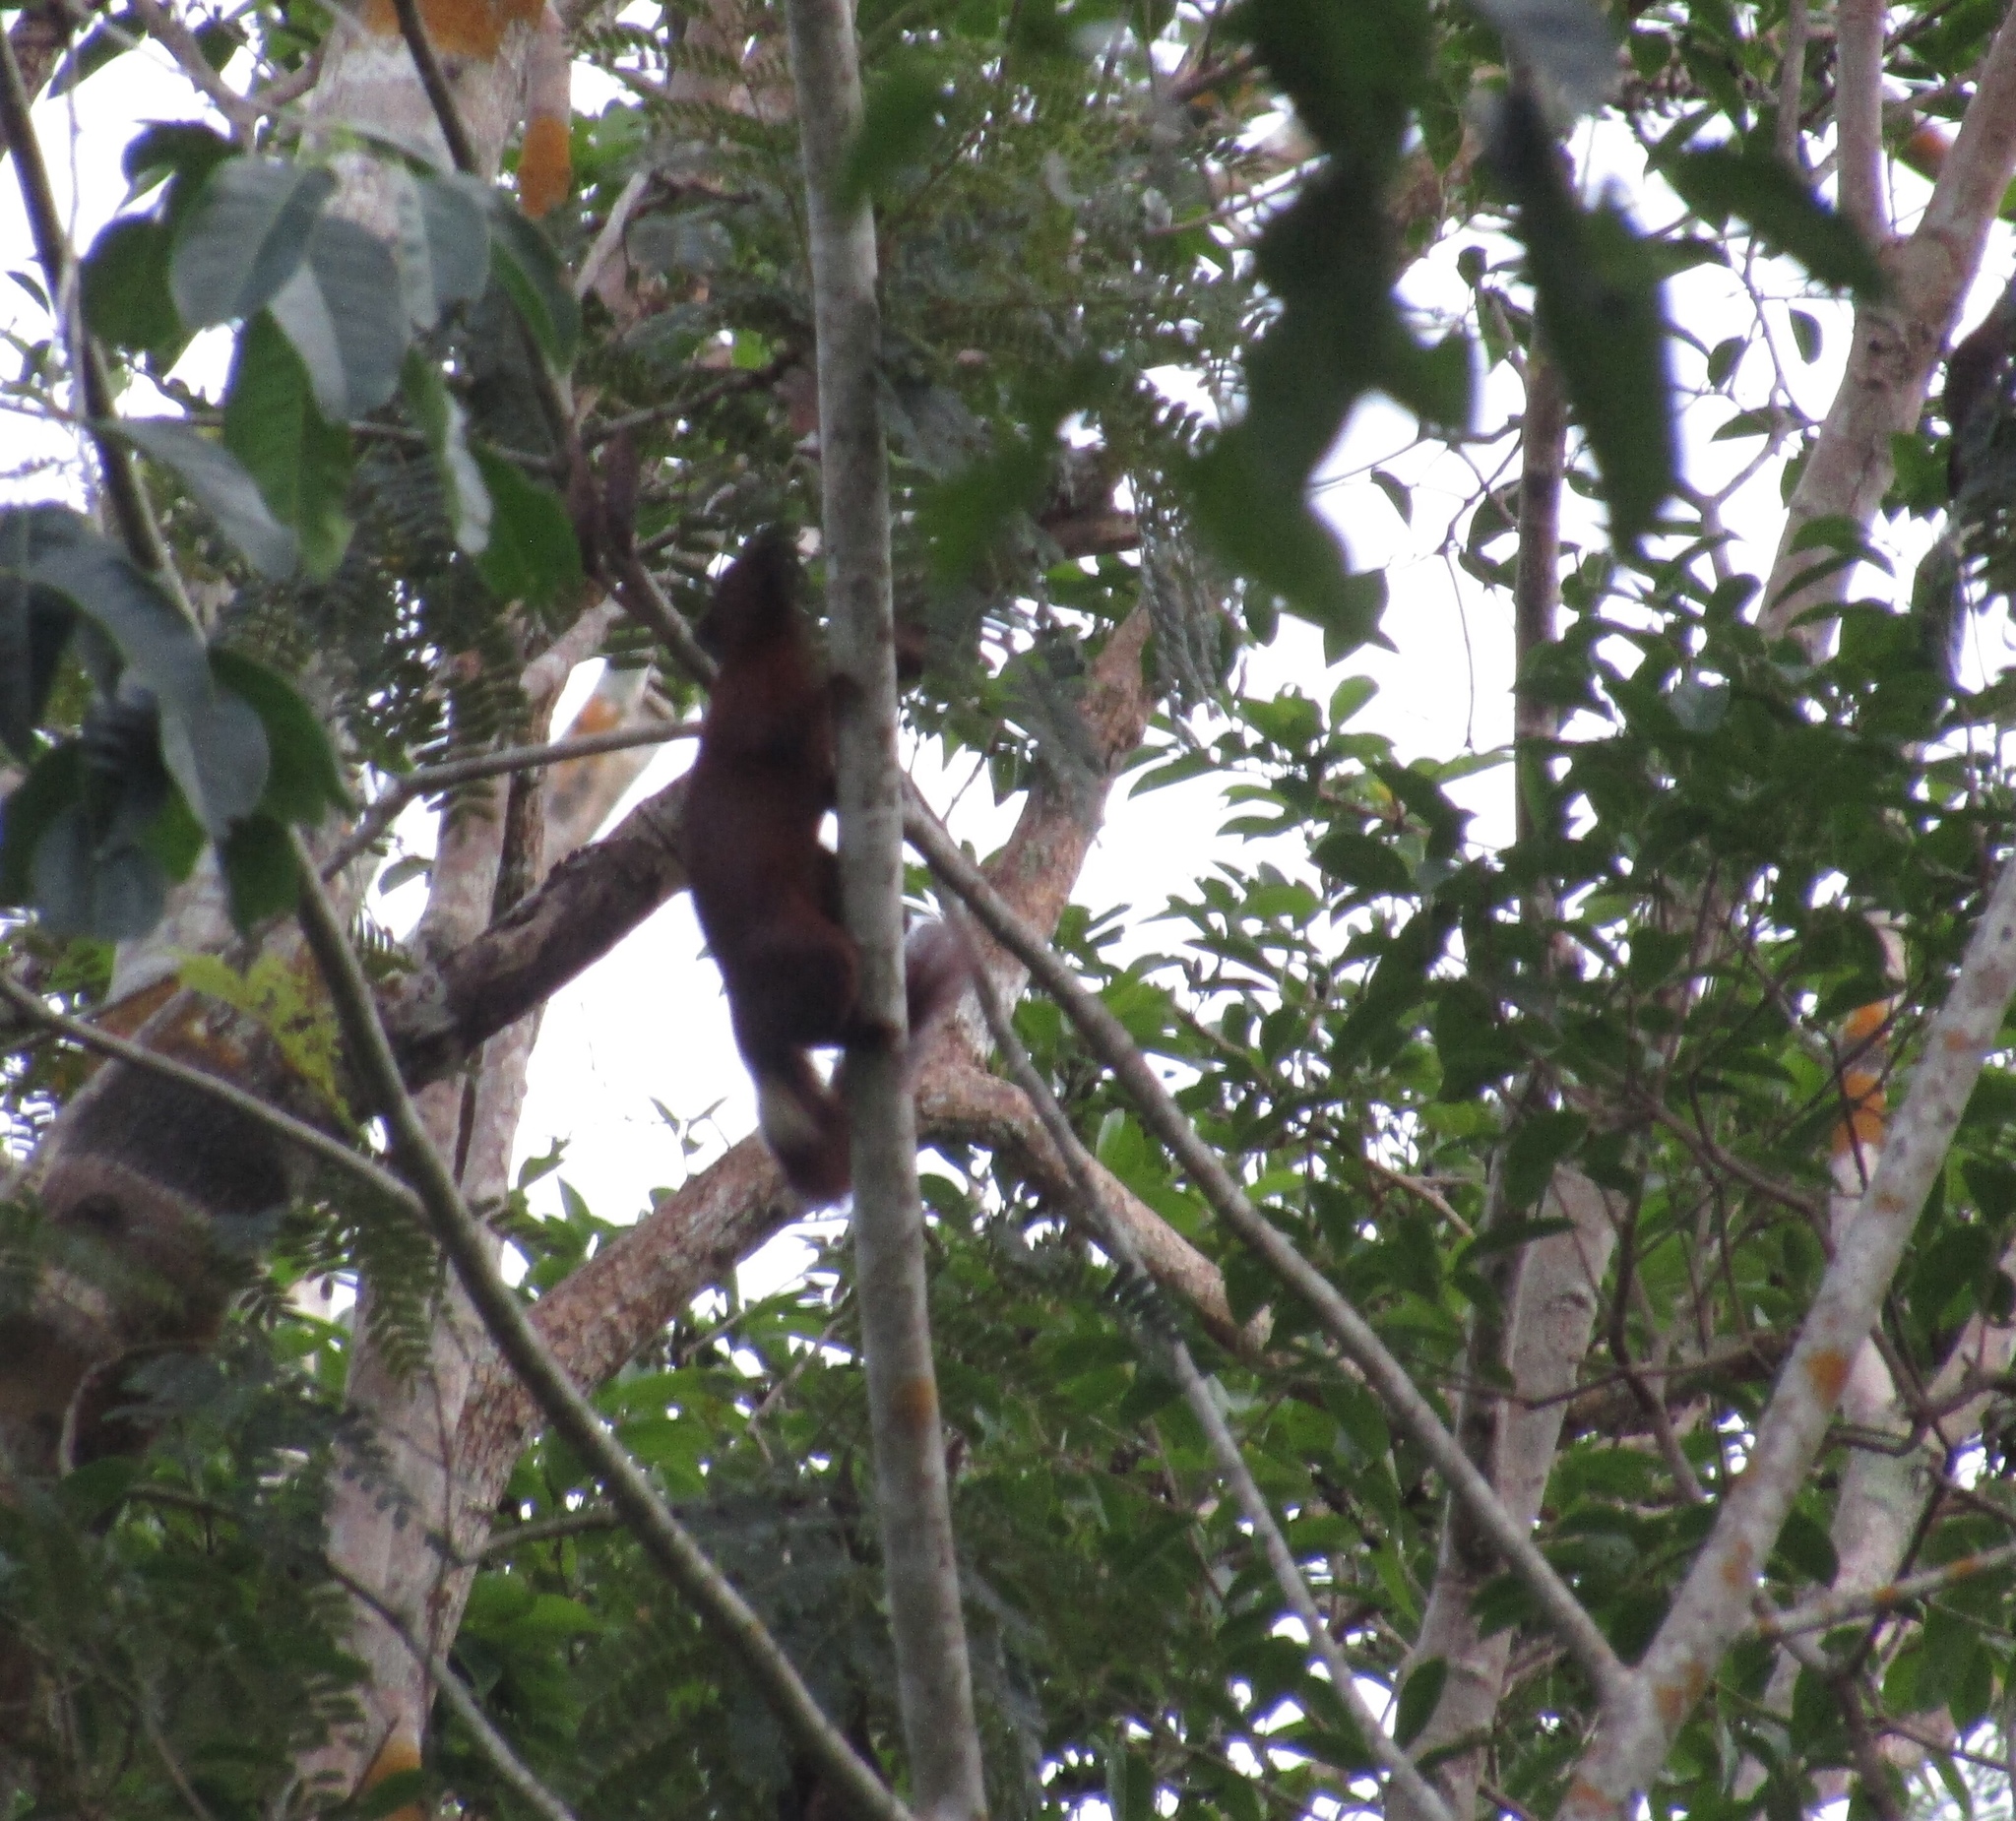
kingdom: Animalia
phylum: Chordata
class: Mammalia
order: Rodentia
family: Sciuridae
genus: Callosciurus
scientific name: Callosciurus finlaysonii
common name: Finlayson's squirrel
